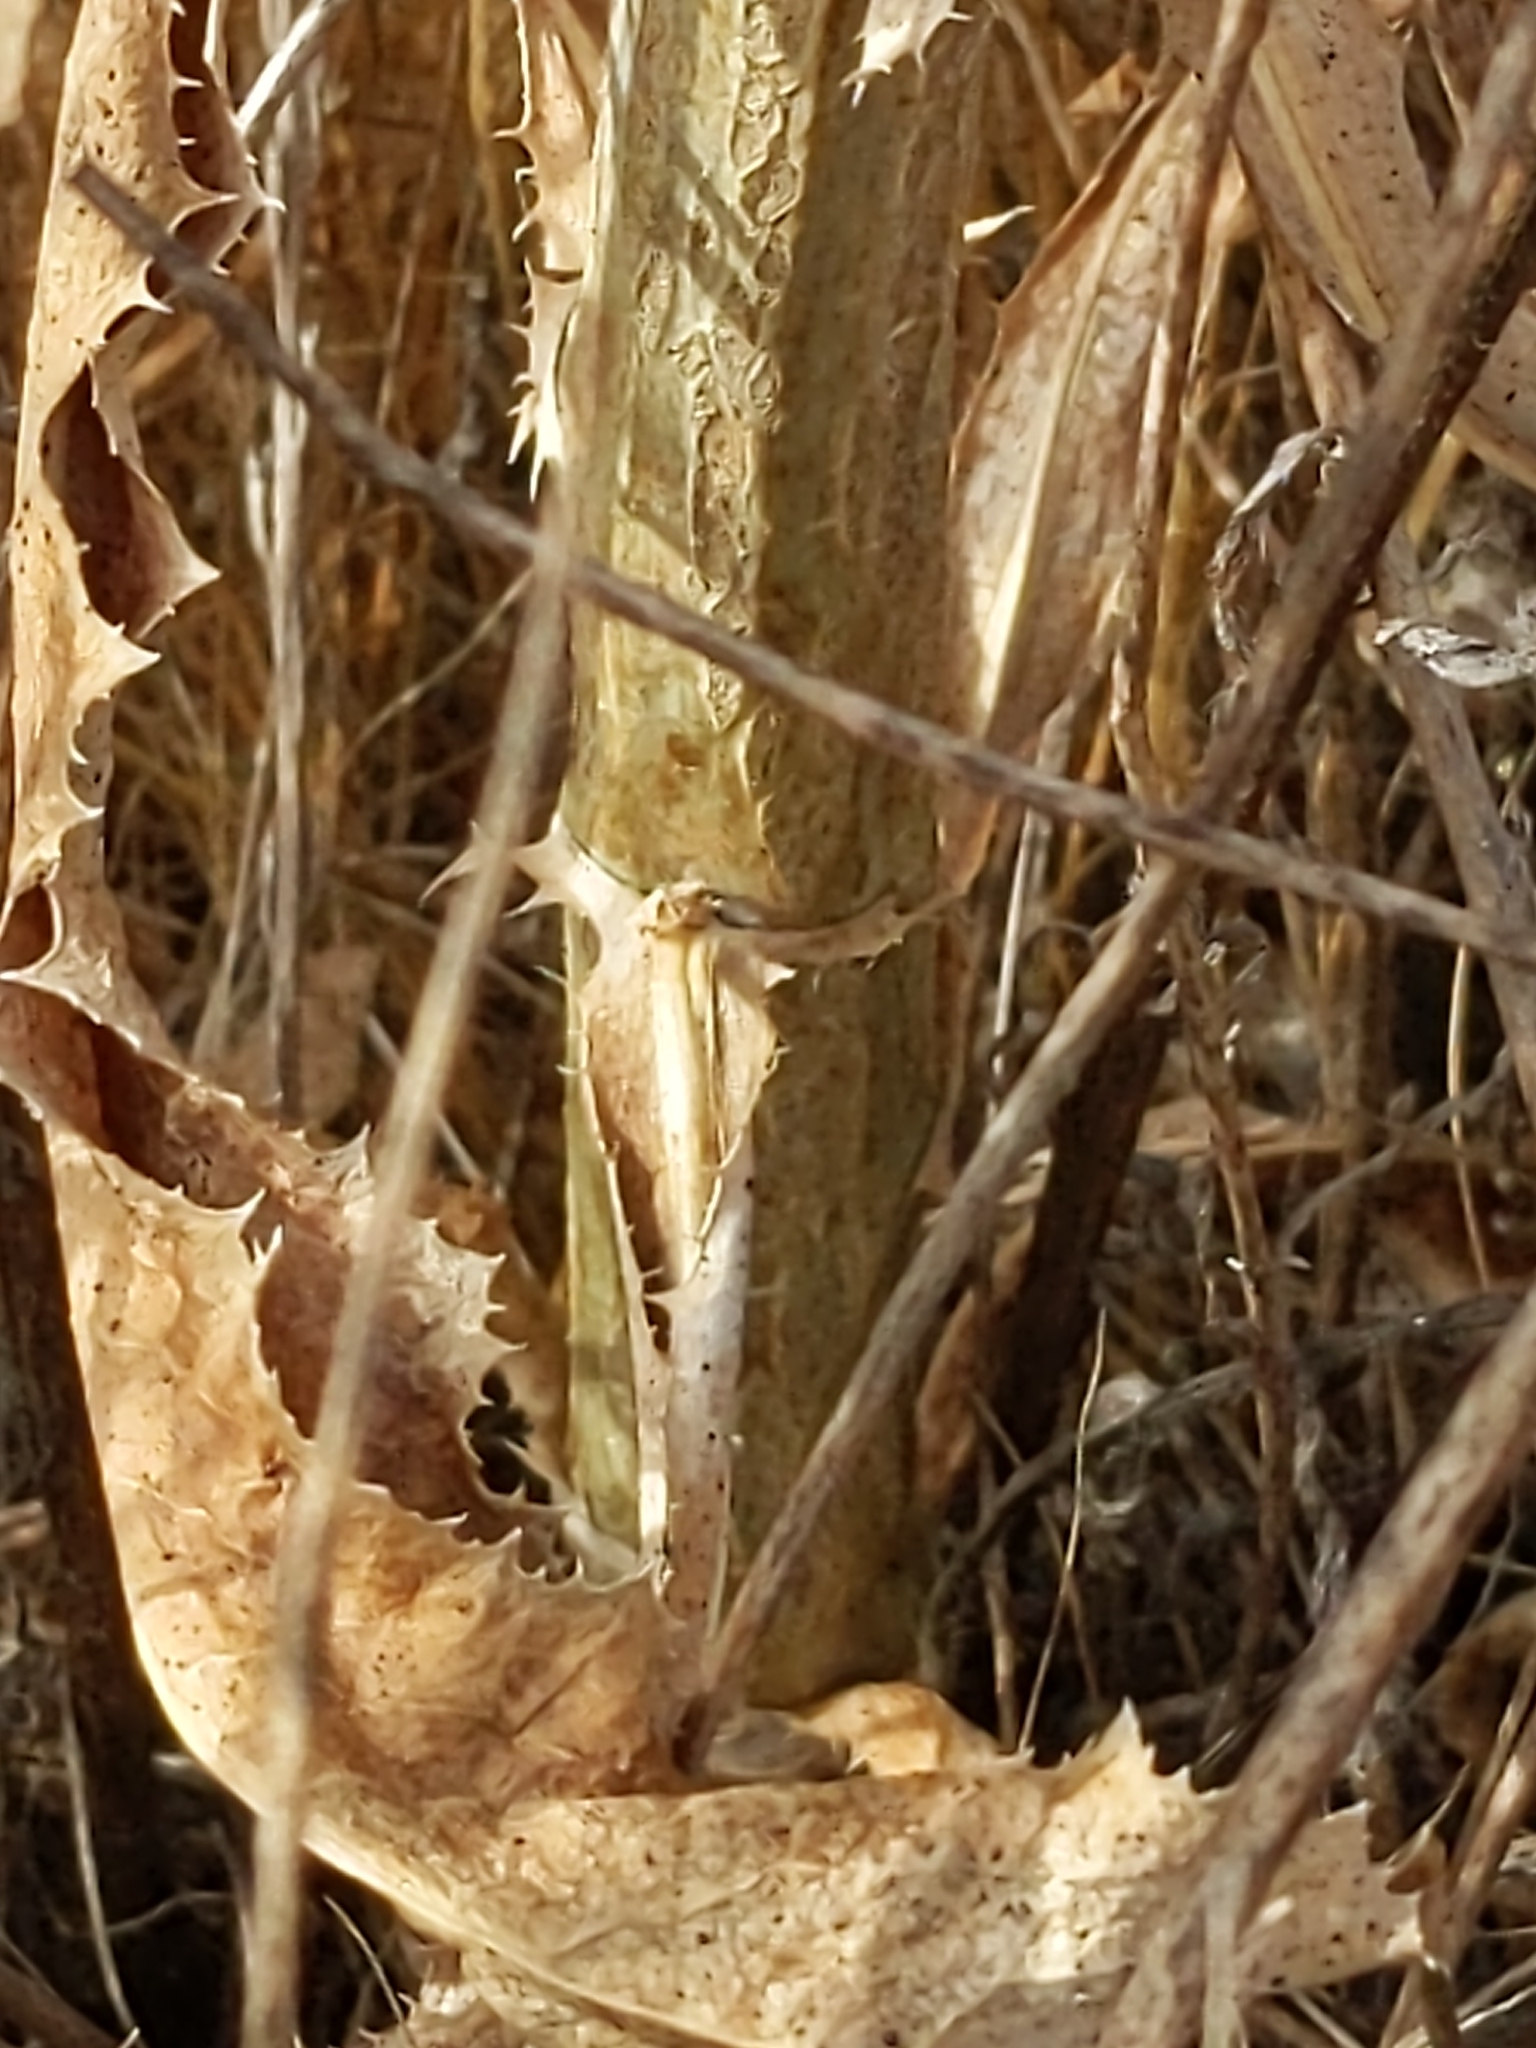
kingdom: Plantae
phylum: Tracheophyta
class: Magnoliopsida
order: Asterales
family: Asteraceae
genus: Lactuca
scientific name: Lactuca serriola
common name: Prickly lettuce
